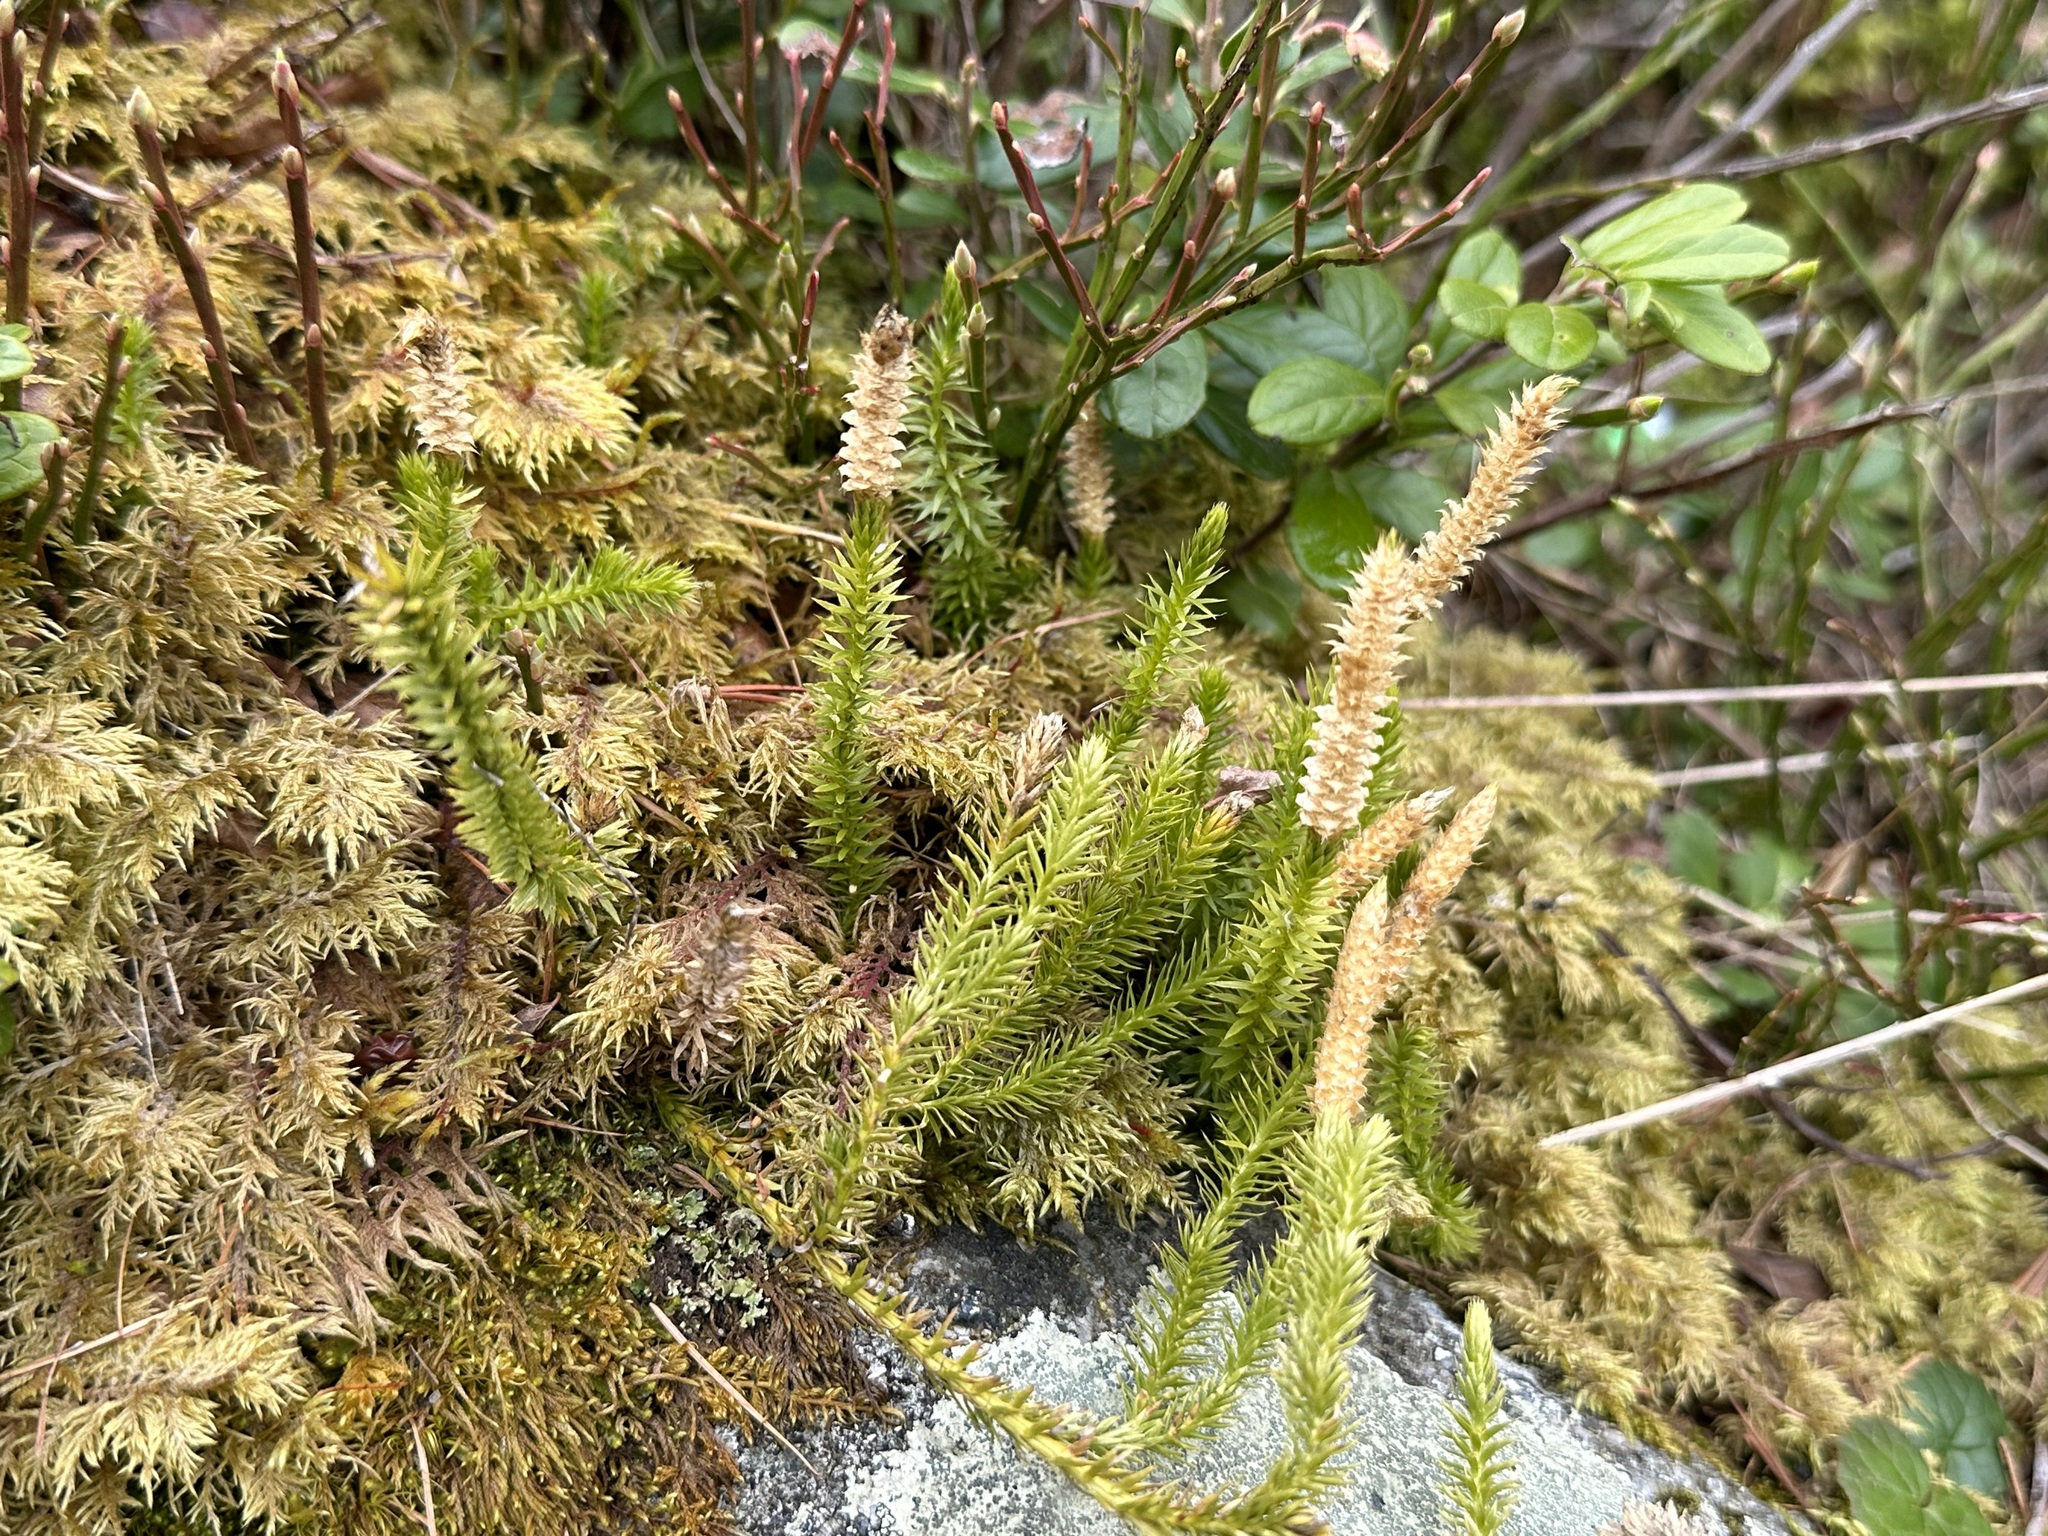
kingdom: Plantae
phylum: Tracheophyta
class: Lycopodiopsida
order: Lycopodiales
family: Lycopodiaceae
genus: Spinulum
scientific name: Spinulum annotinum
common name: Interrupted club-moss
